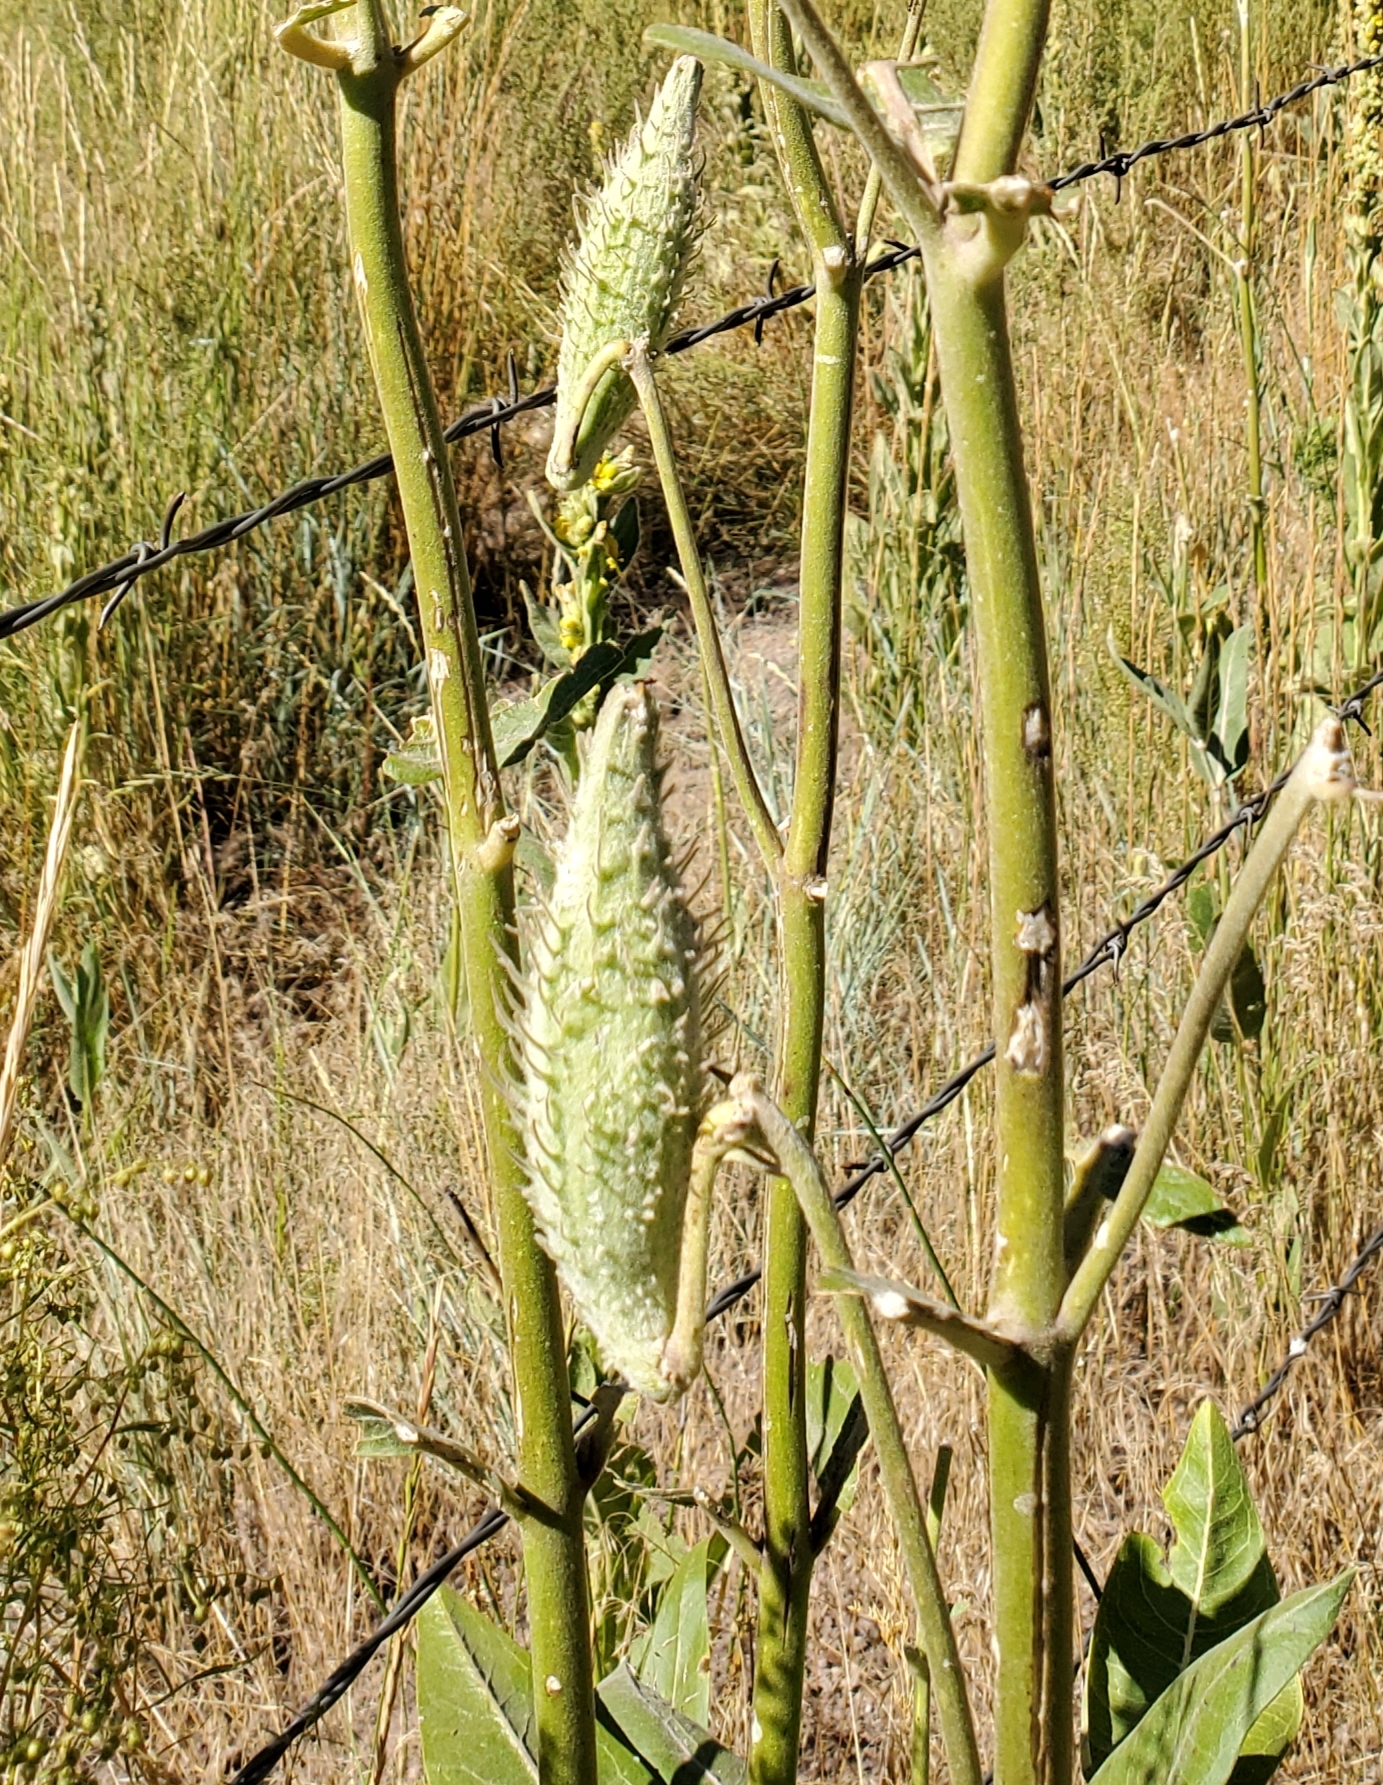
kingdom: Plantae
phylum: Tracheophyta
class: Magnoliopsida
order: Gentianales
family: Apocynaceae
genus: Asclepias
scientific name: Asclepias speciosa
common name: Showy milkweed
